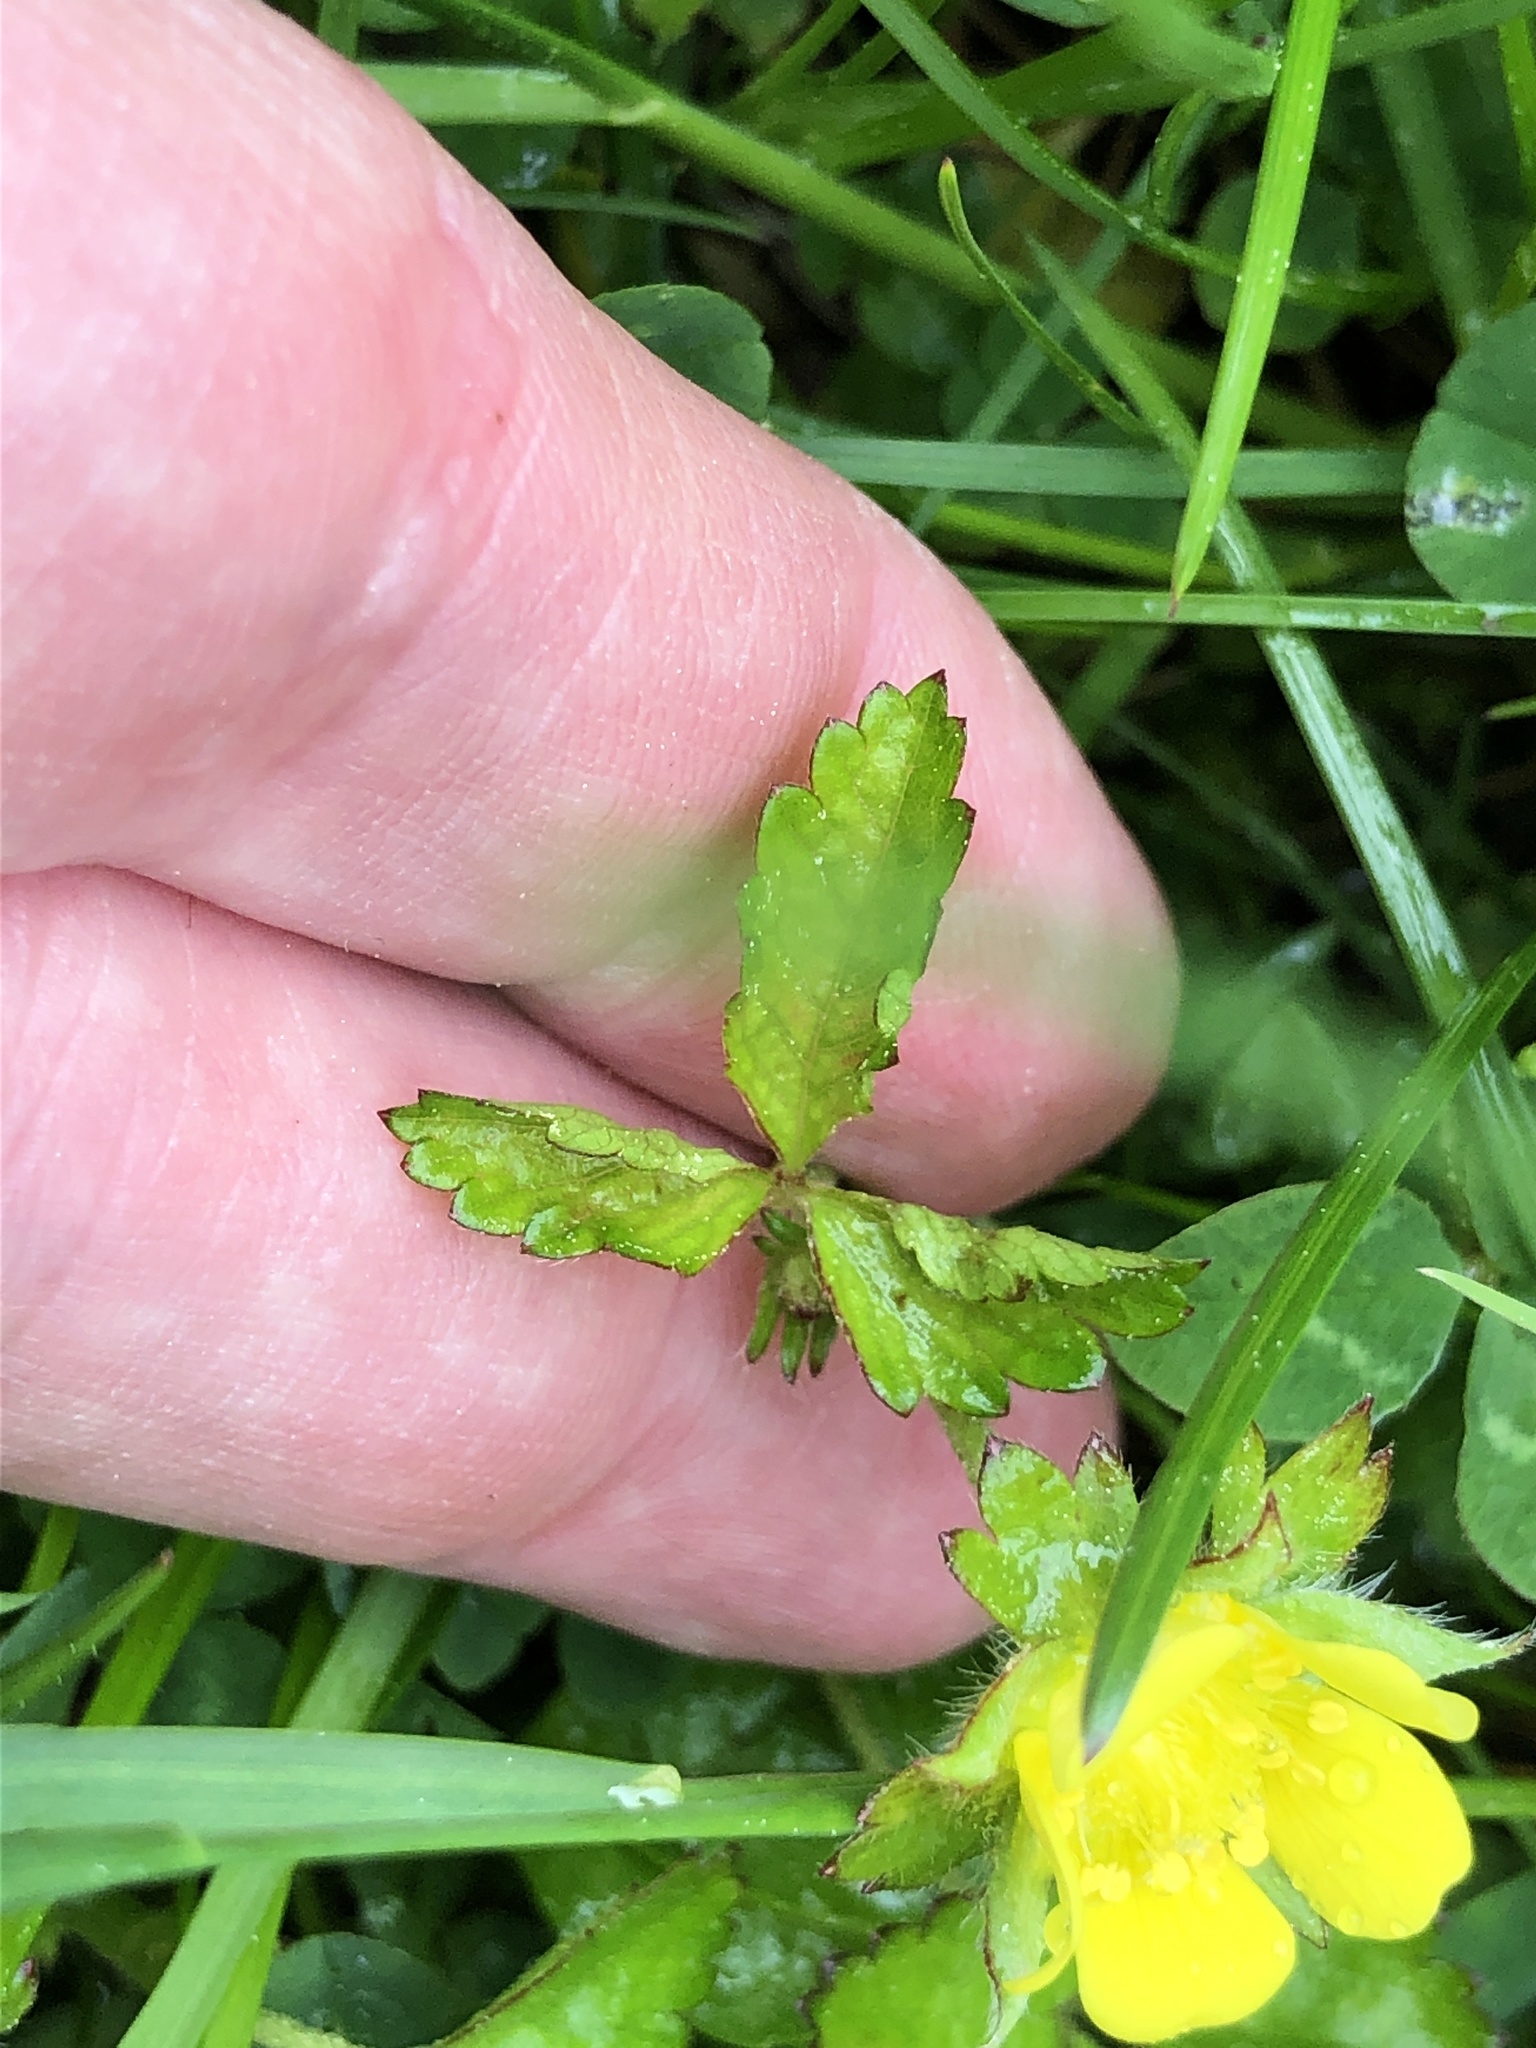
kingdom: Plantae
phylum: Tracheophyta
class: Magnoliopsida
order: Rosales
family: Rosaceae
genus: Potentilla
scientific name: Potentilla indica
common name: Yellow-flowered strawberry
